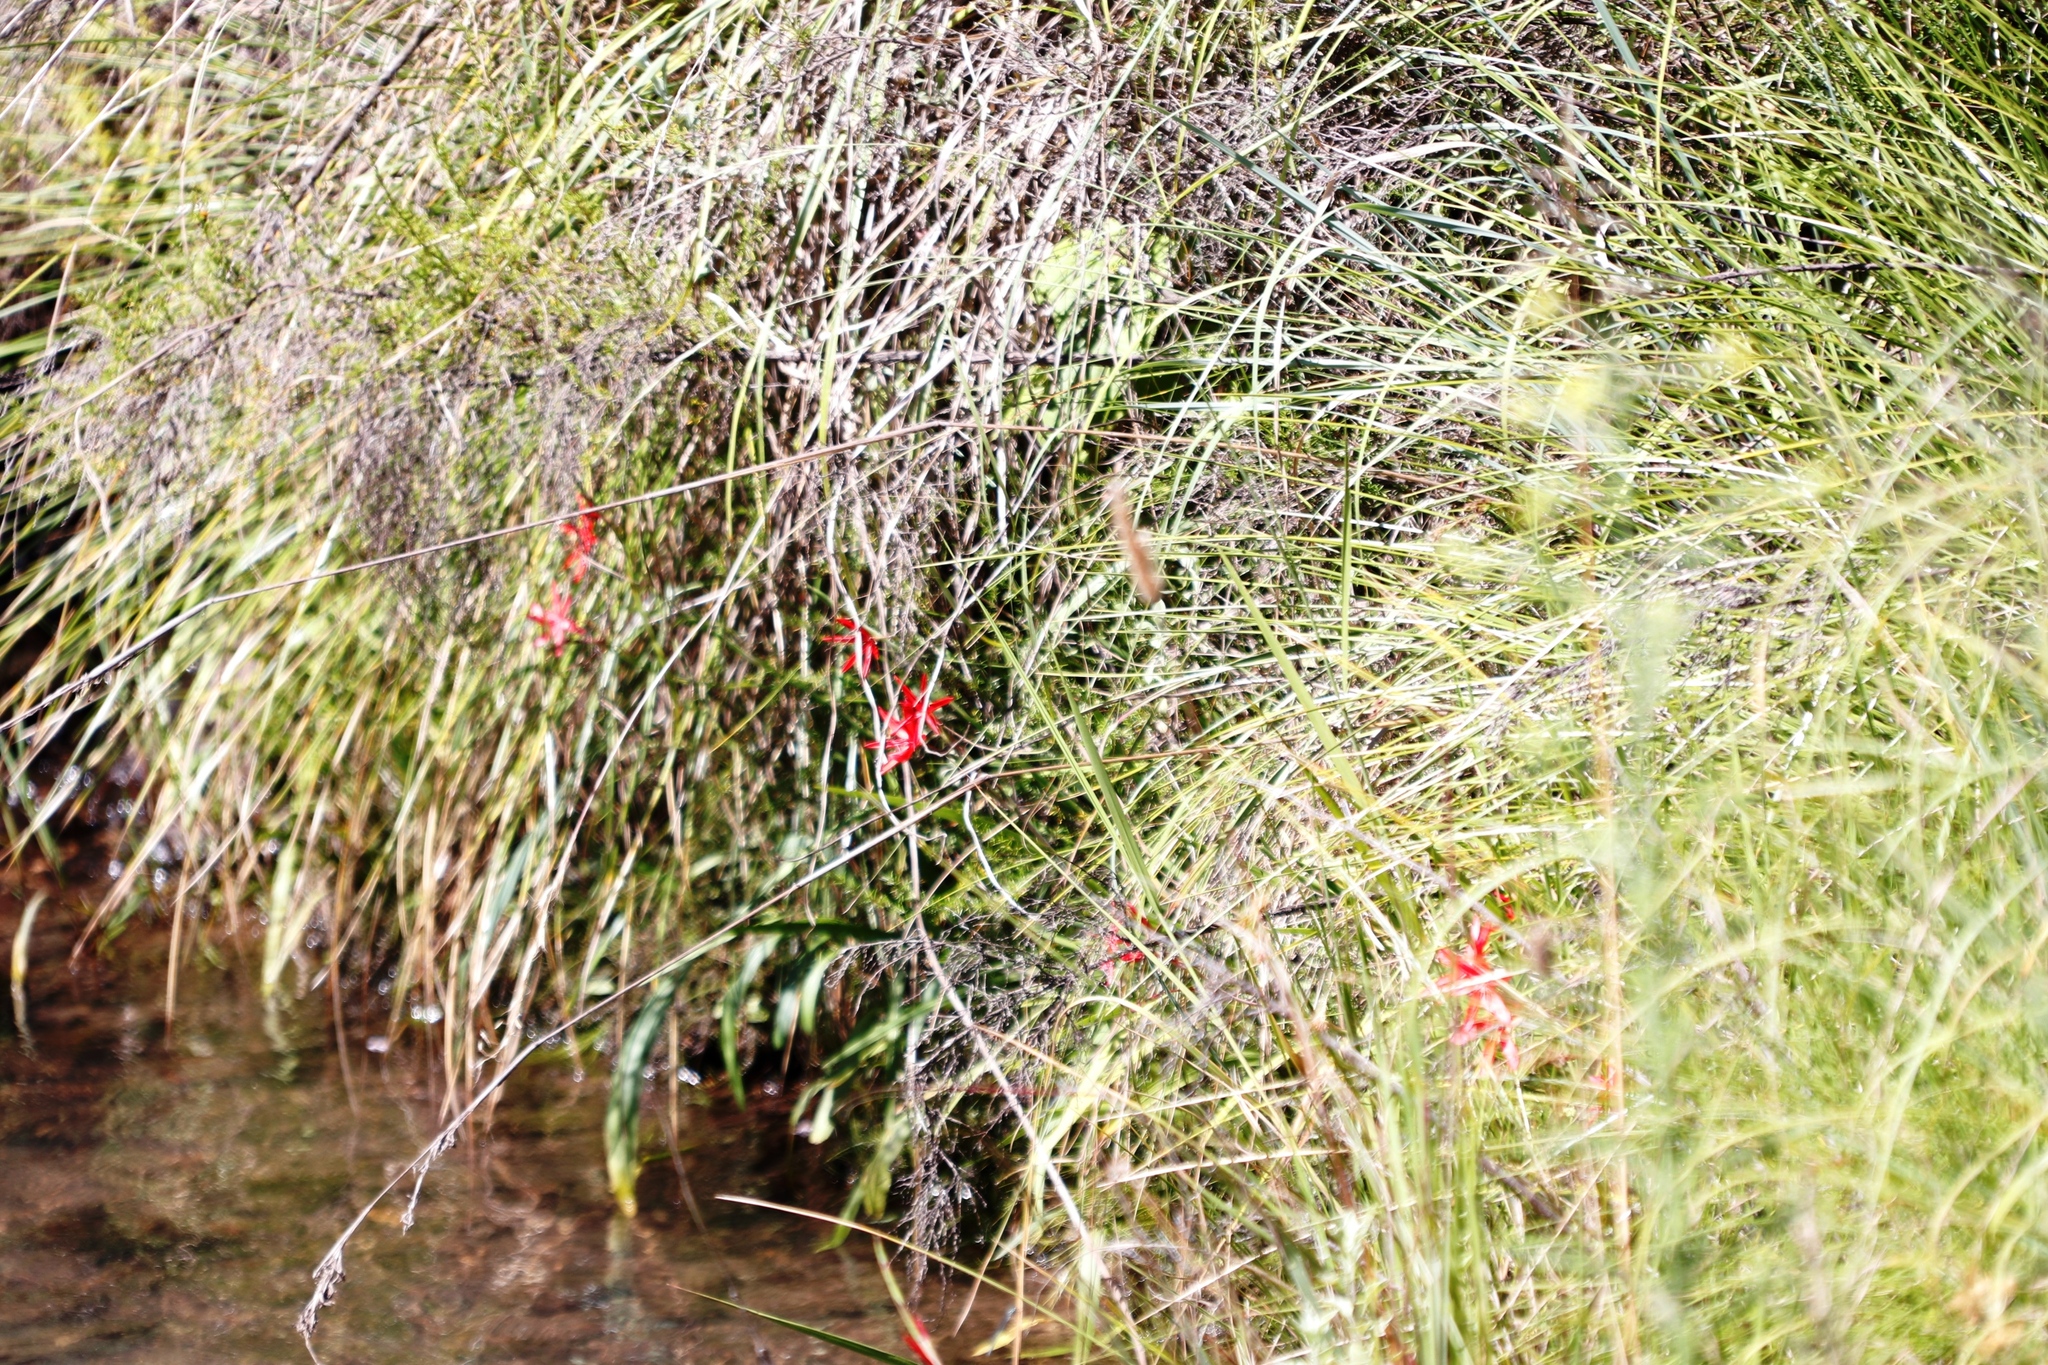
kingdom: Plantae
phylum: Tracheophyta
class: Liliopsida
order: Asparagales
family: Iridaceae
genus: Hesperantha
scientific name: Hesperantha coccinea
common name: River-lily
